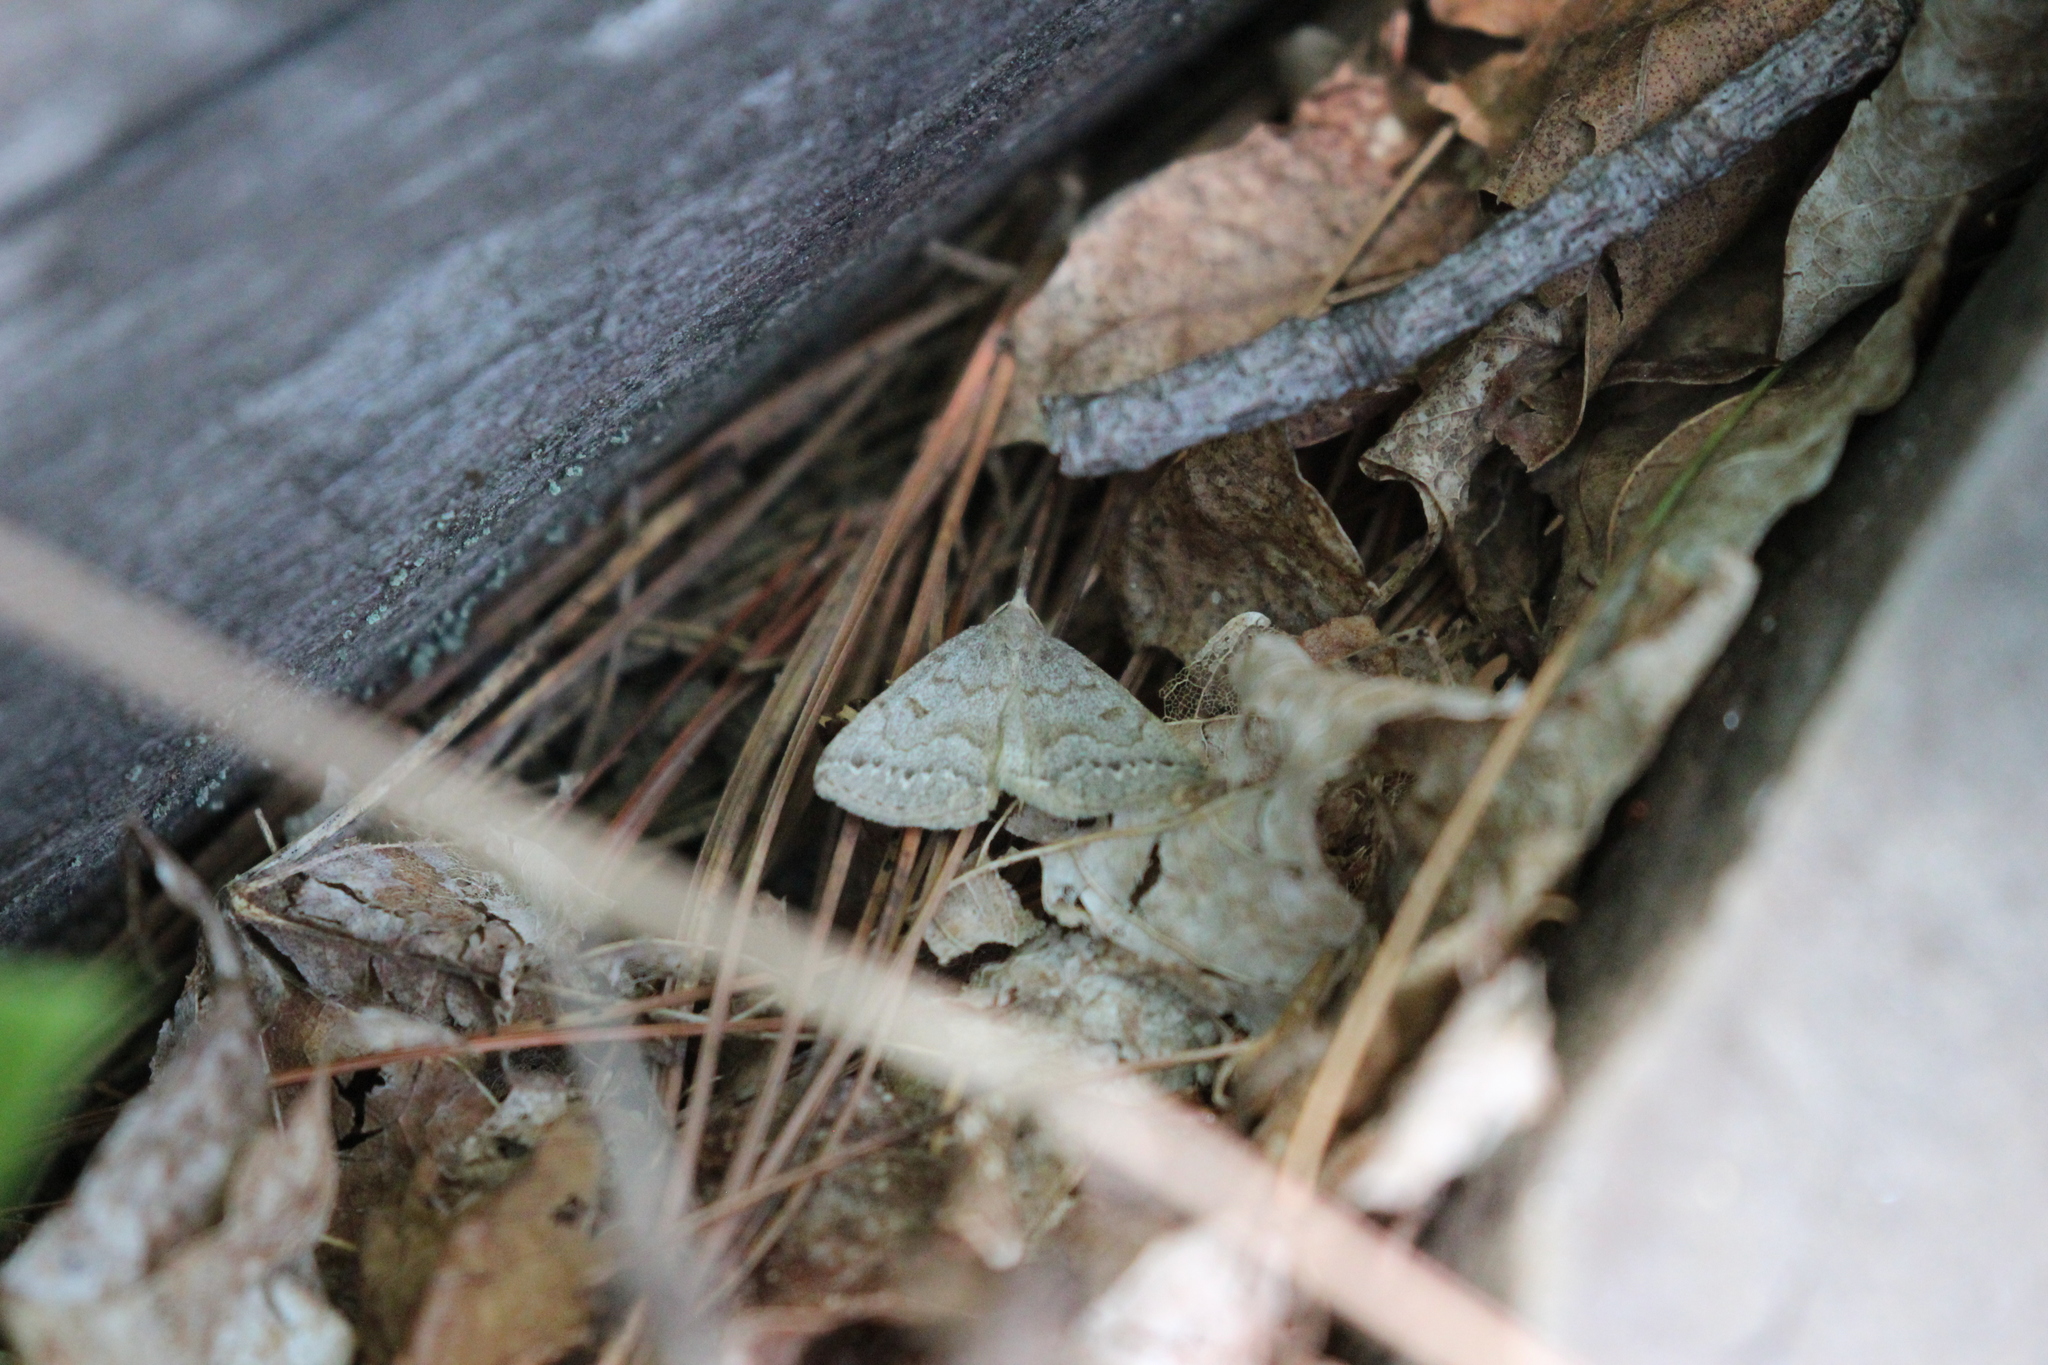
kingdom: Animalia
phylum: Arthropoda
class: Insecta
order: Lepidoptera
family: Erebidae
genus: Macrochilo
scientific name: Macrochilo morbidalis
